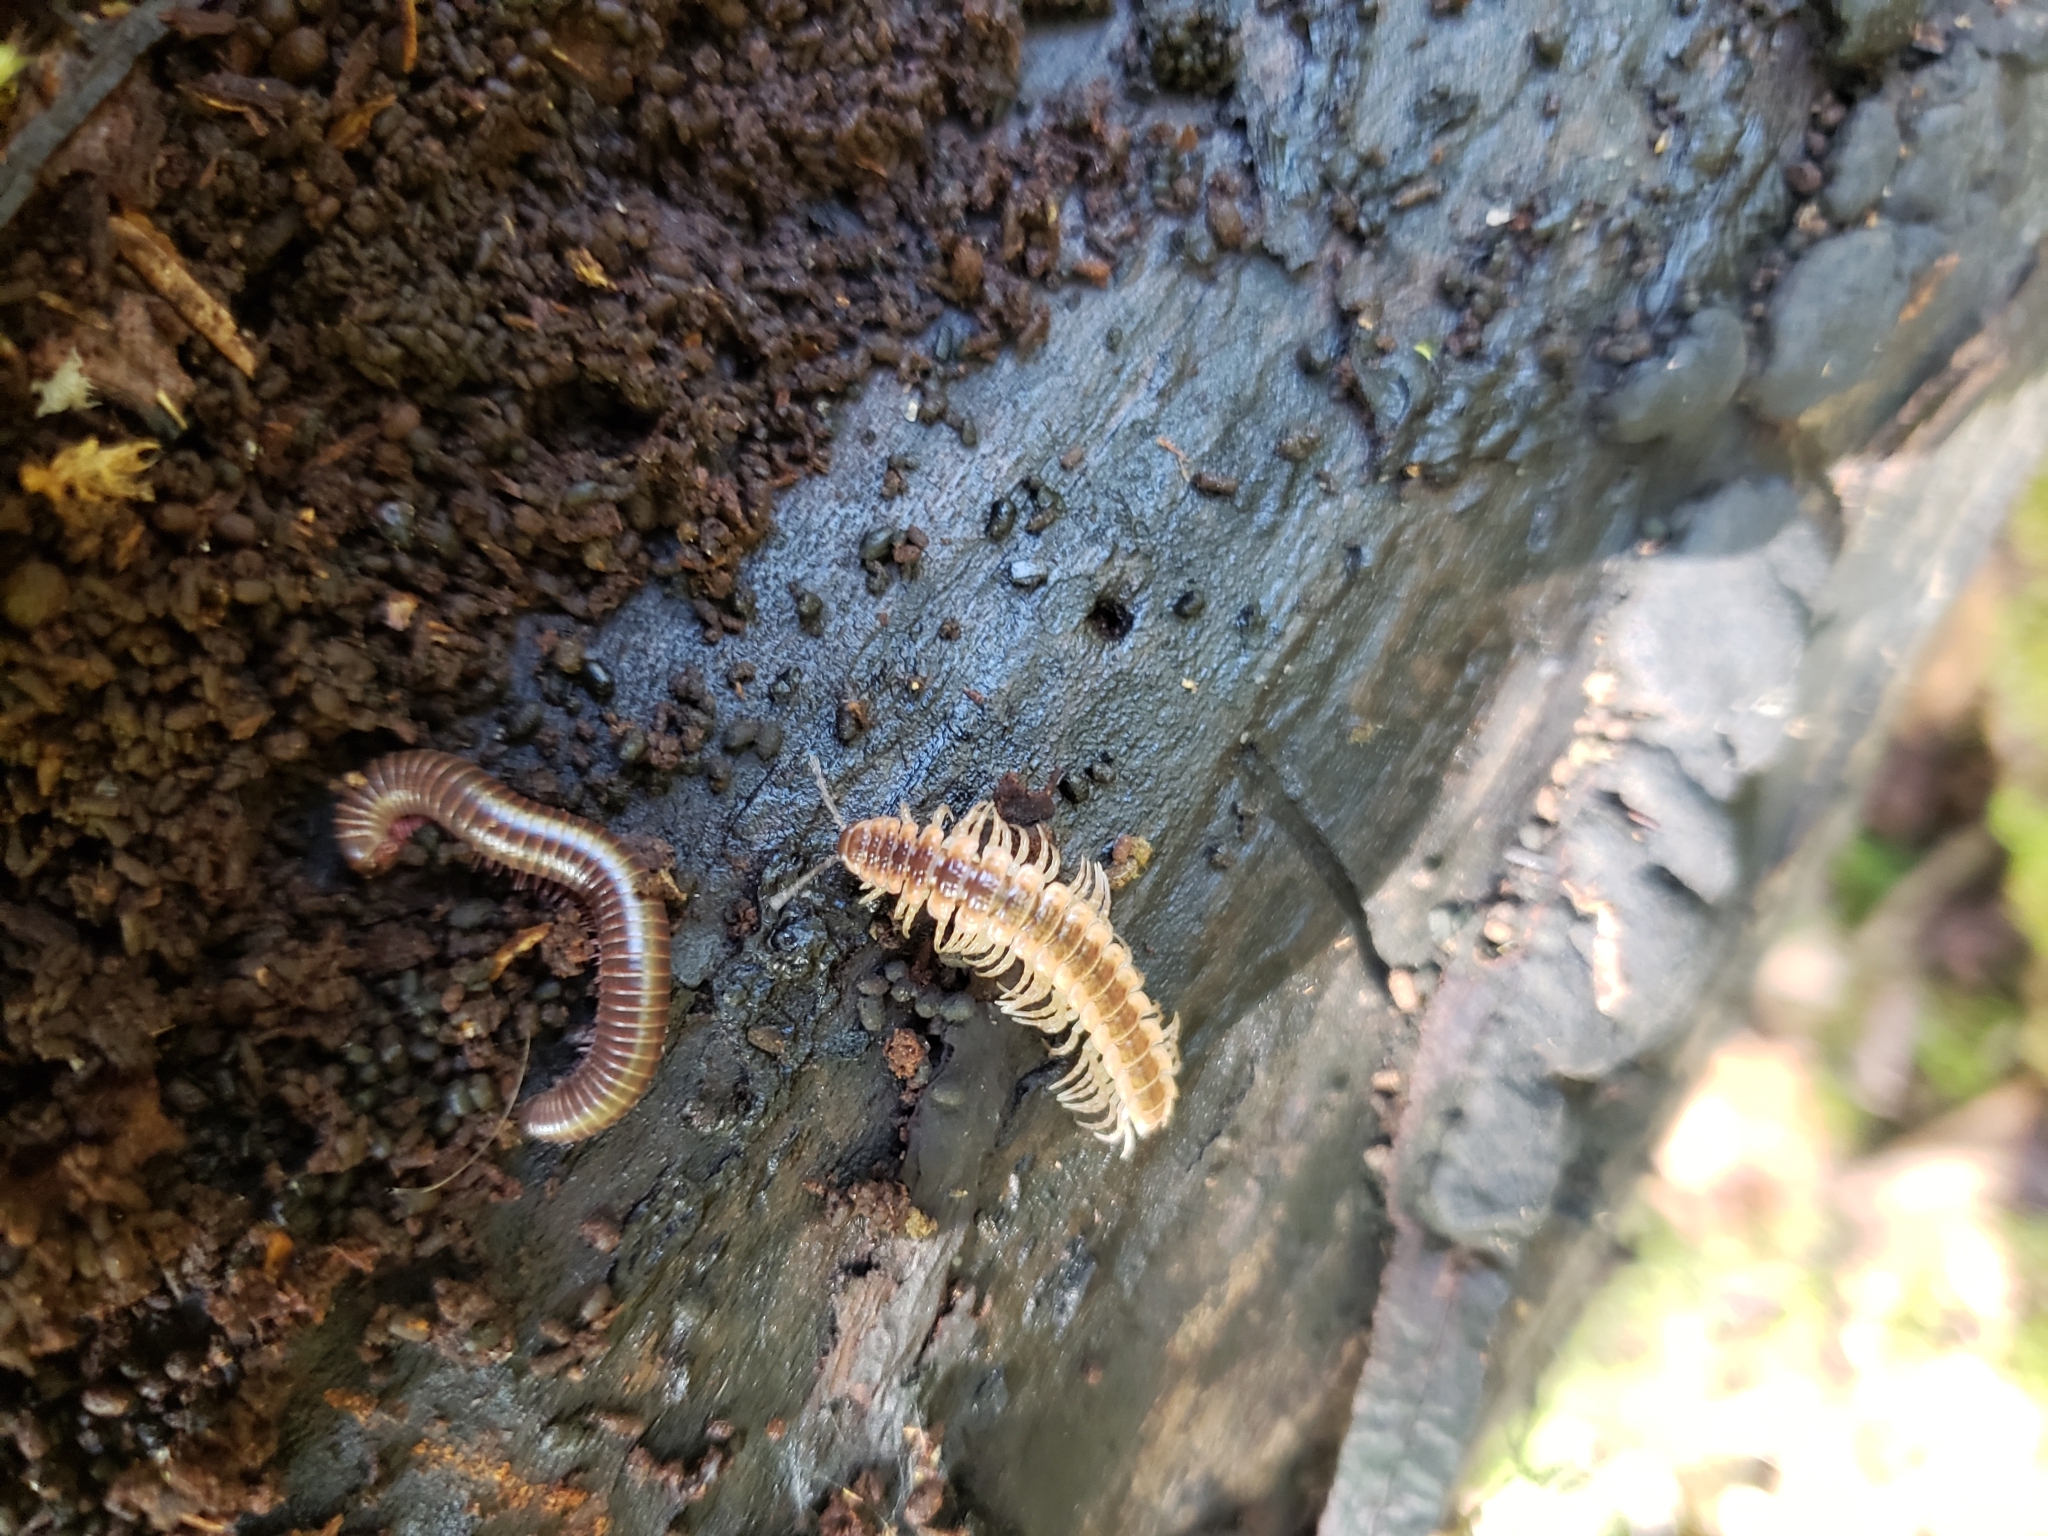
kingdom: Animalia
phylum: Arthropoda
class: Diplopoda
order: Polydesmida
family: Polydesmidae
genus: Pseudopolydesmus
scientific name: Pseudopolydesmus serratus
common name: Common pink flat-back millipede
